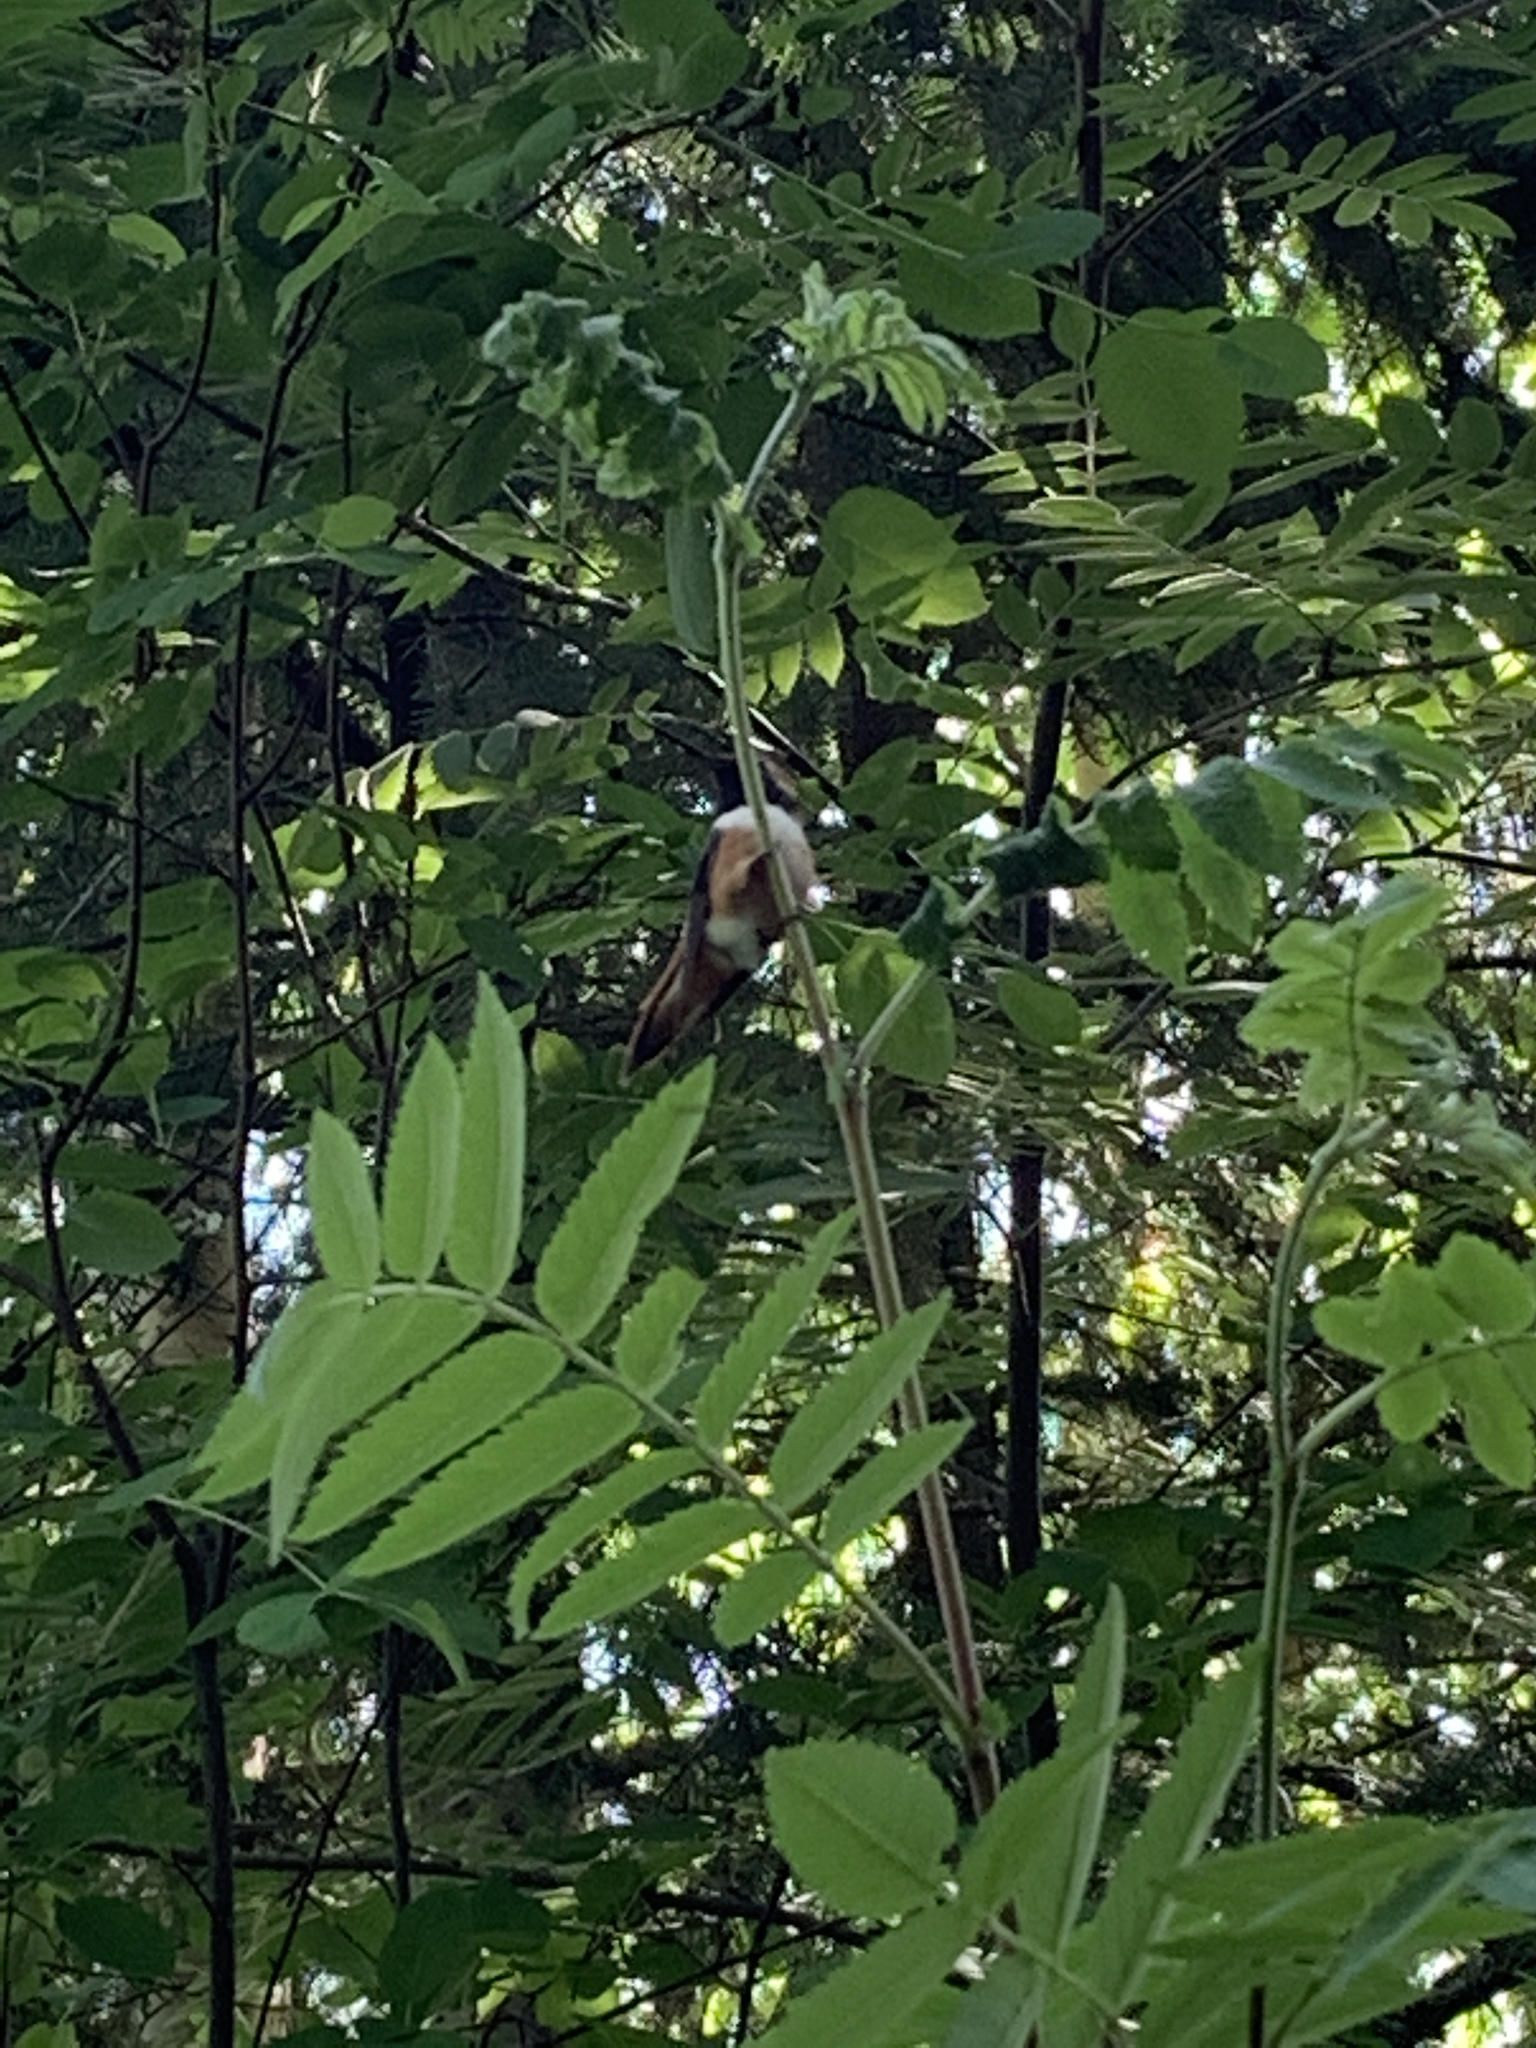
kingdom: Animalia
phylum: Chordata
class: Aves
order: Apodiformes
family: Trochilidae
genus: Selasphorus
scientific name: Selasphorus rufus
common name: Rufous hummingbird
